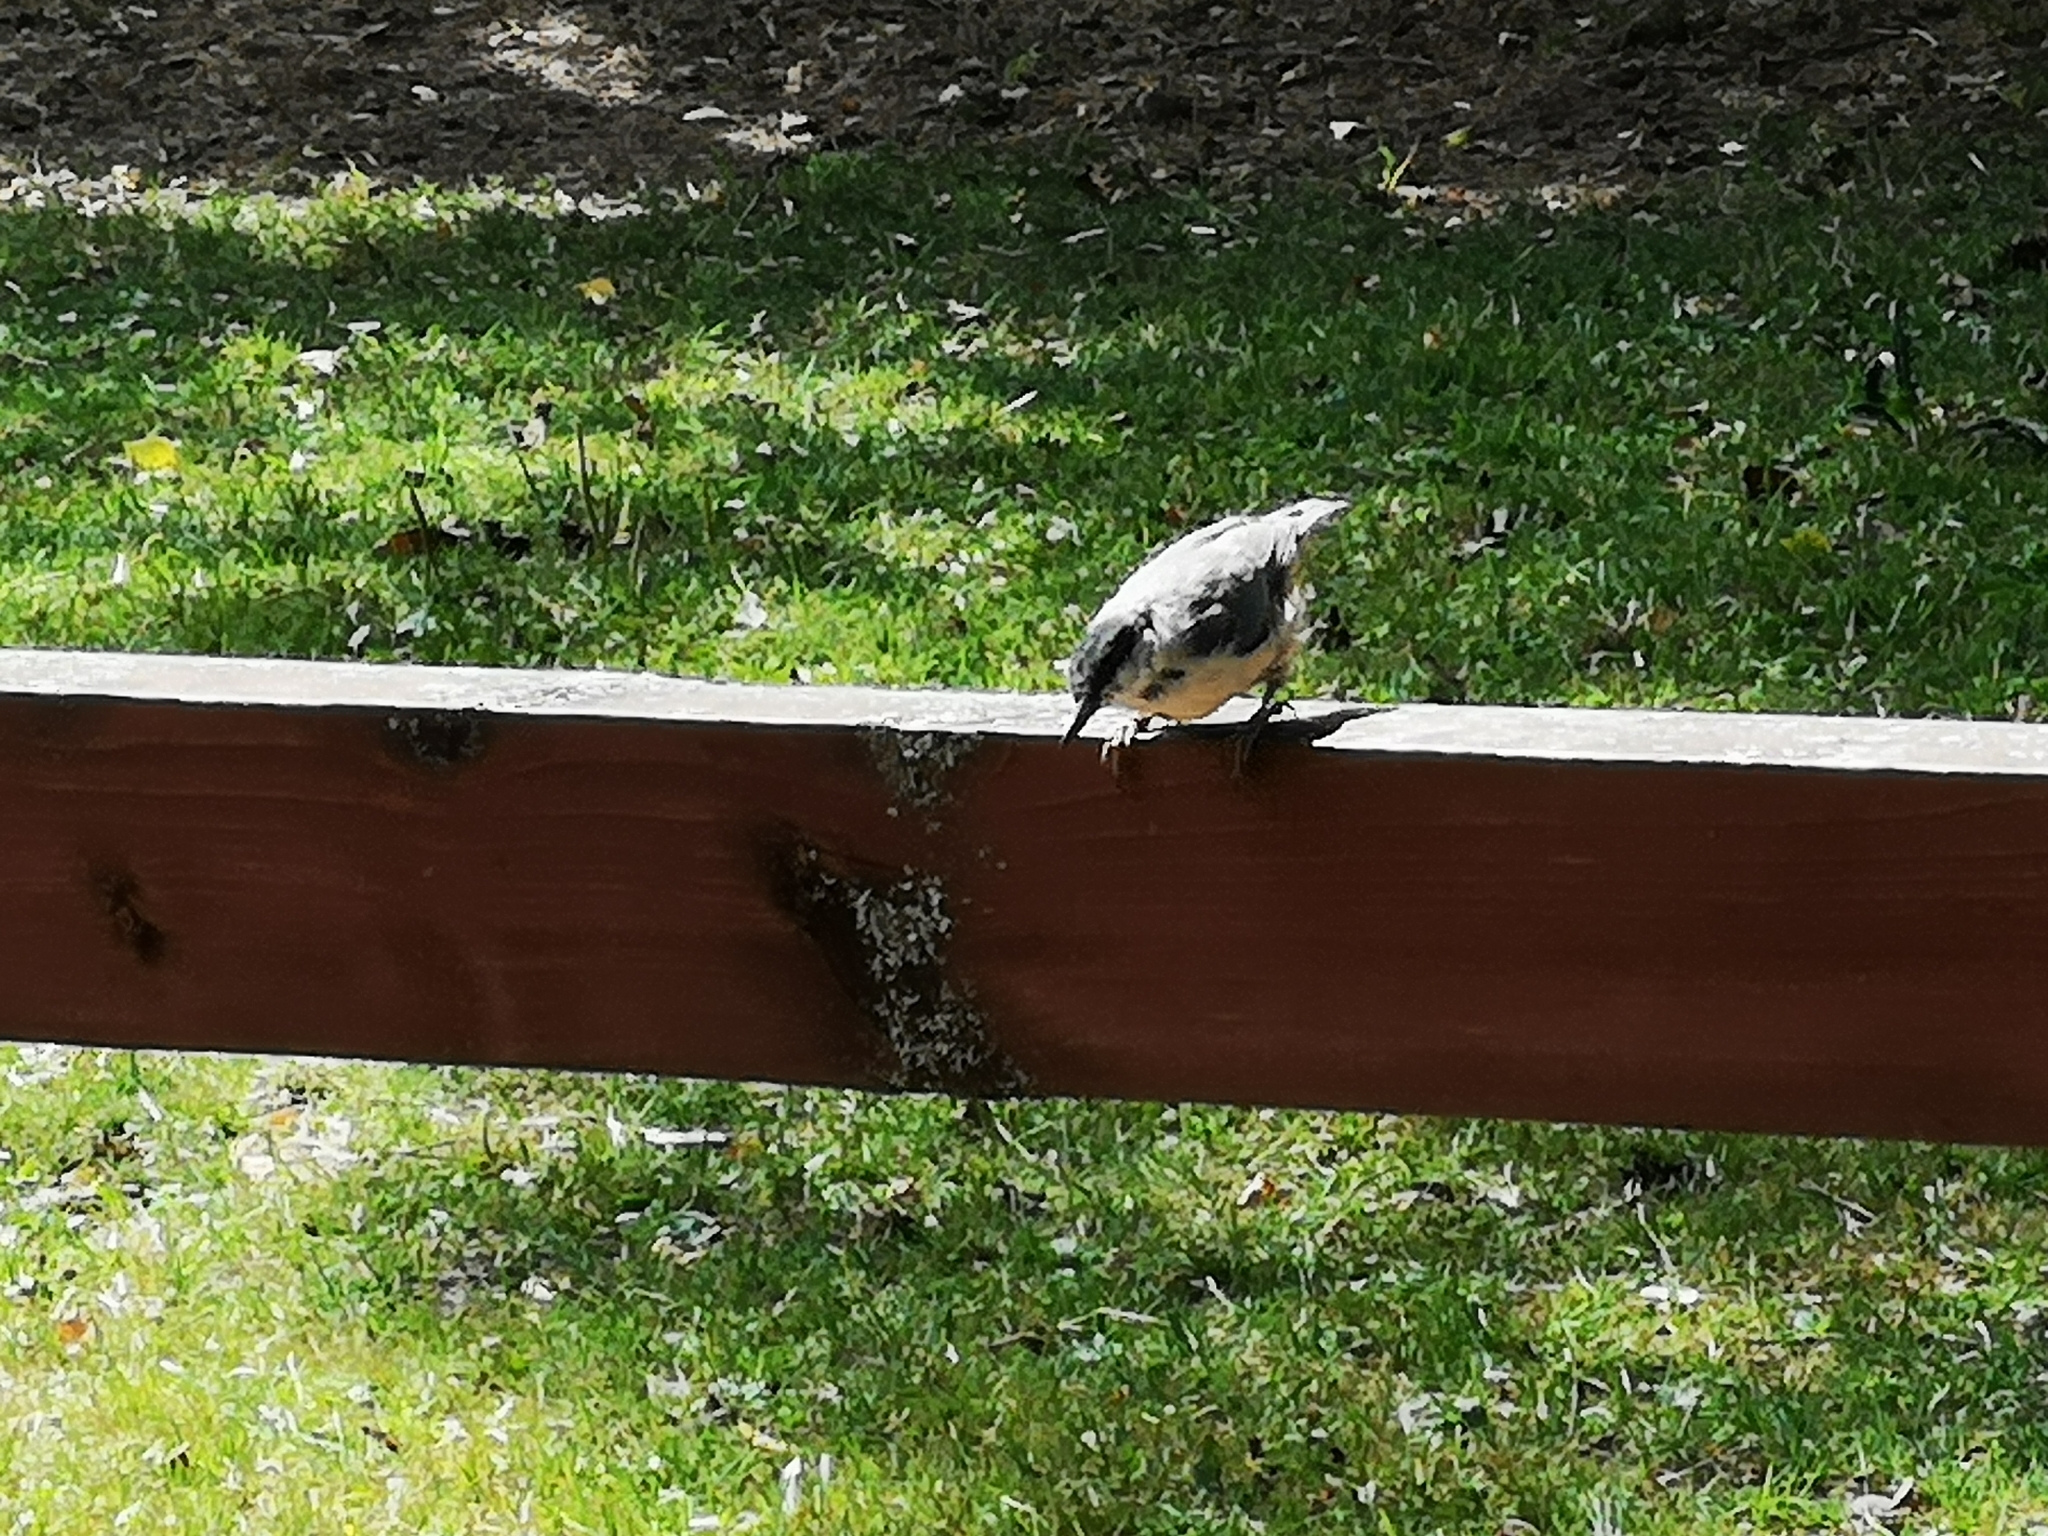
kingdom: Animalia
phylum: Chordata
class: Aves
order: Passeriformes
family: Sittidae
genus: Sitta
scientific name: Sitta europaea
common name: Eurasian nuthatch
